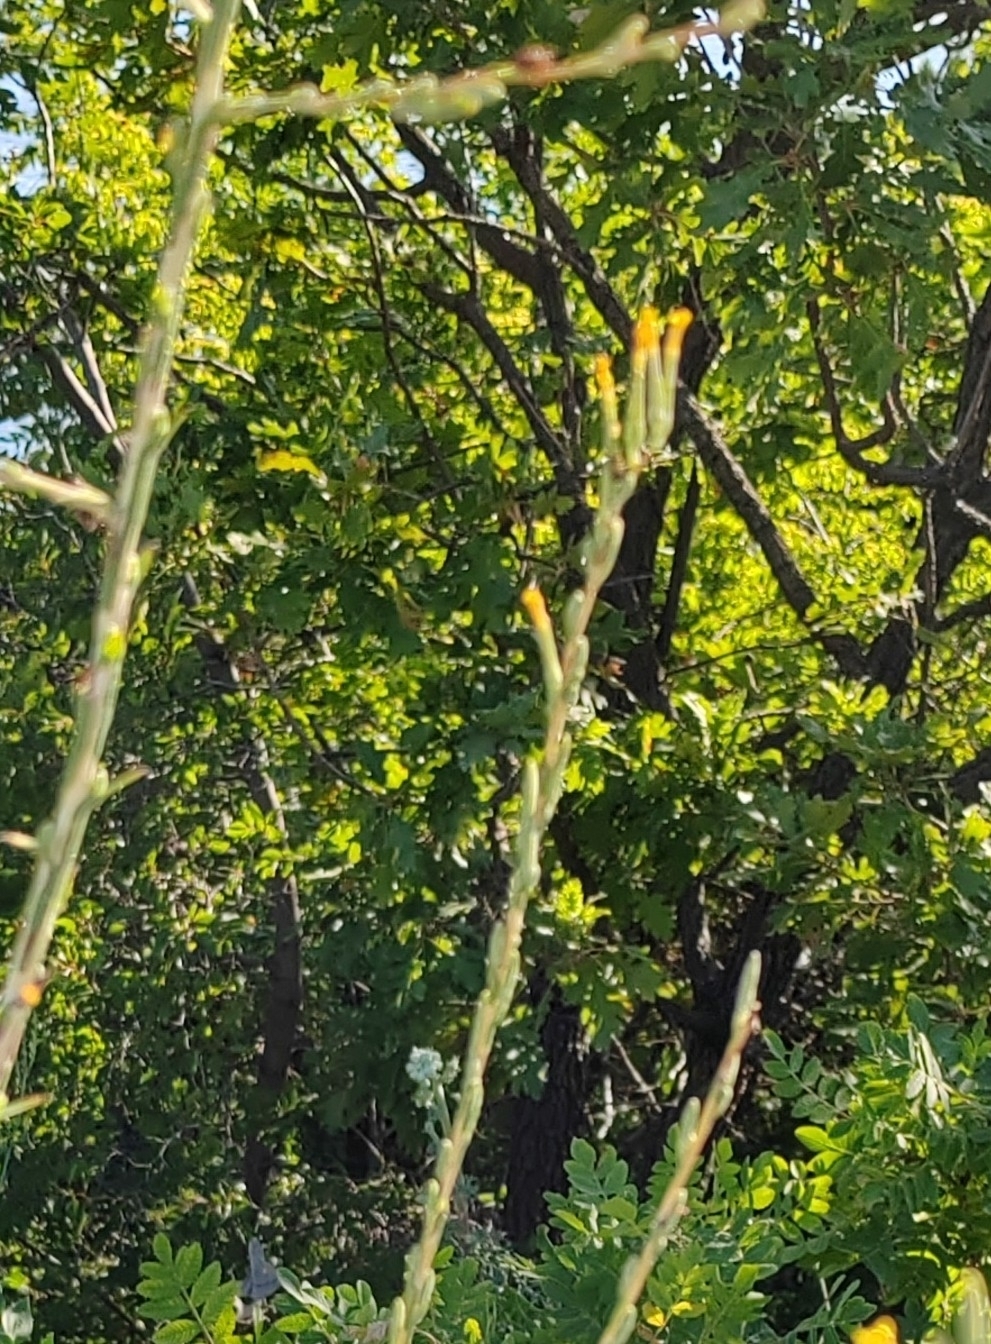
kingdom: Plantae
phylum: Tracheophyta
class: Magnoliopsida
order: Asterales
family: Asteraceae
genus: Lactuca
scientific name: Lactuca viminea
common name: Pliant lettuce
